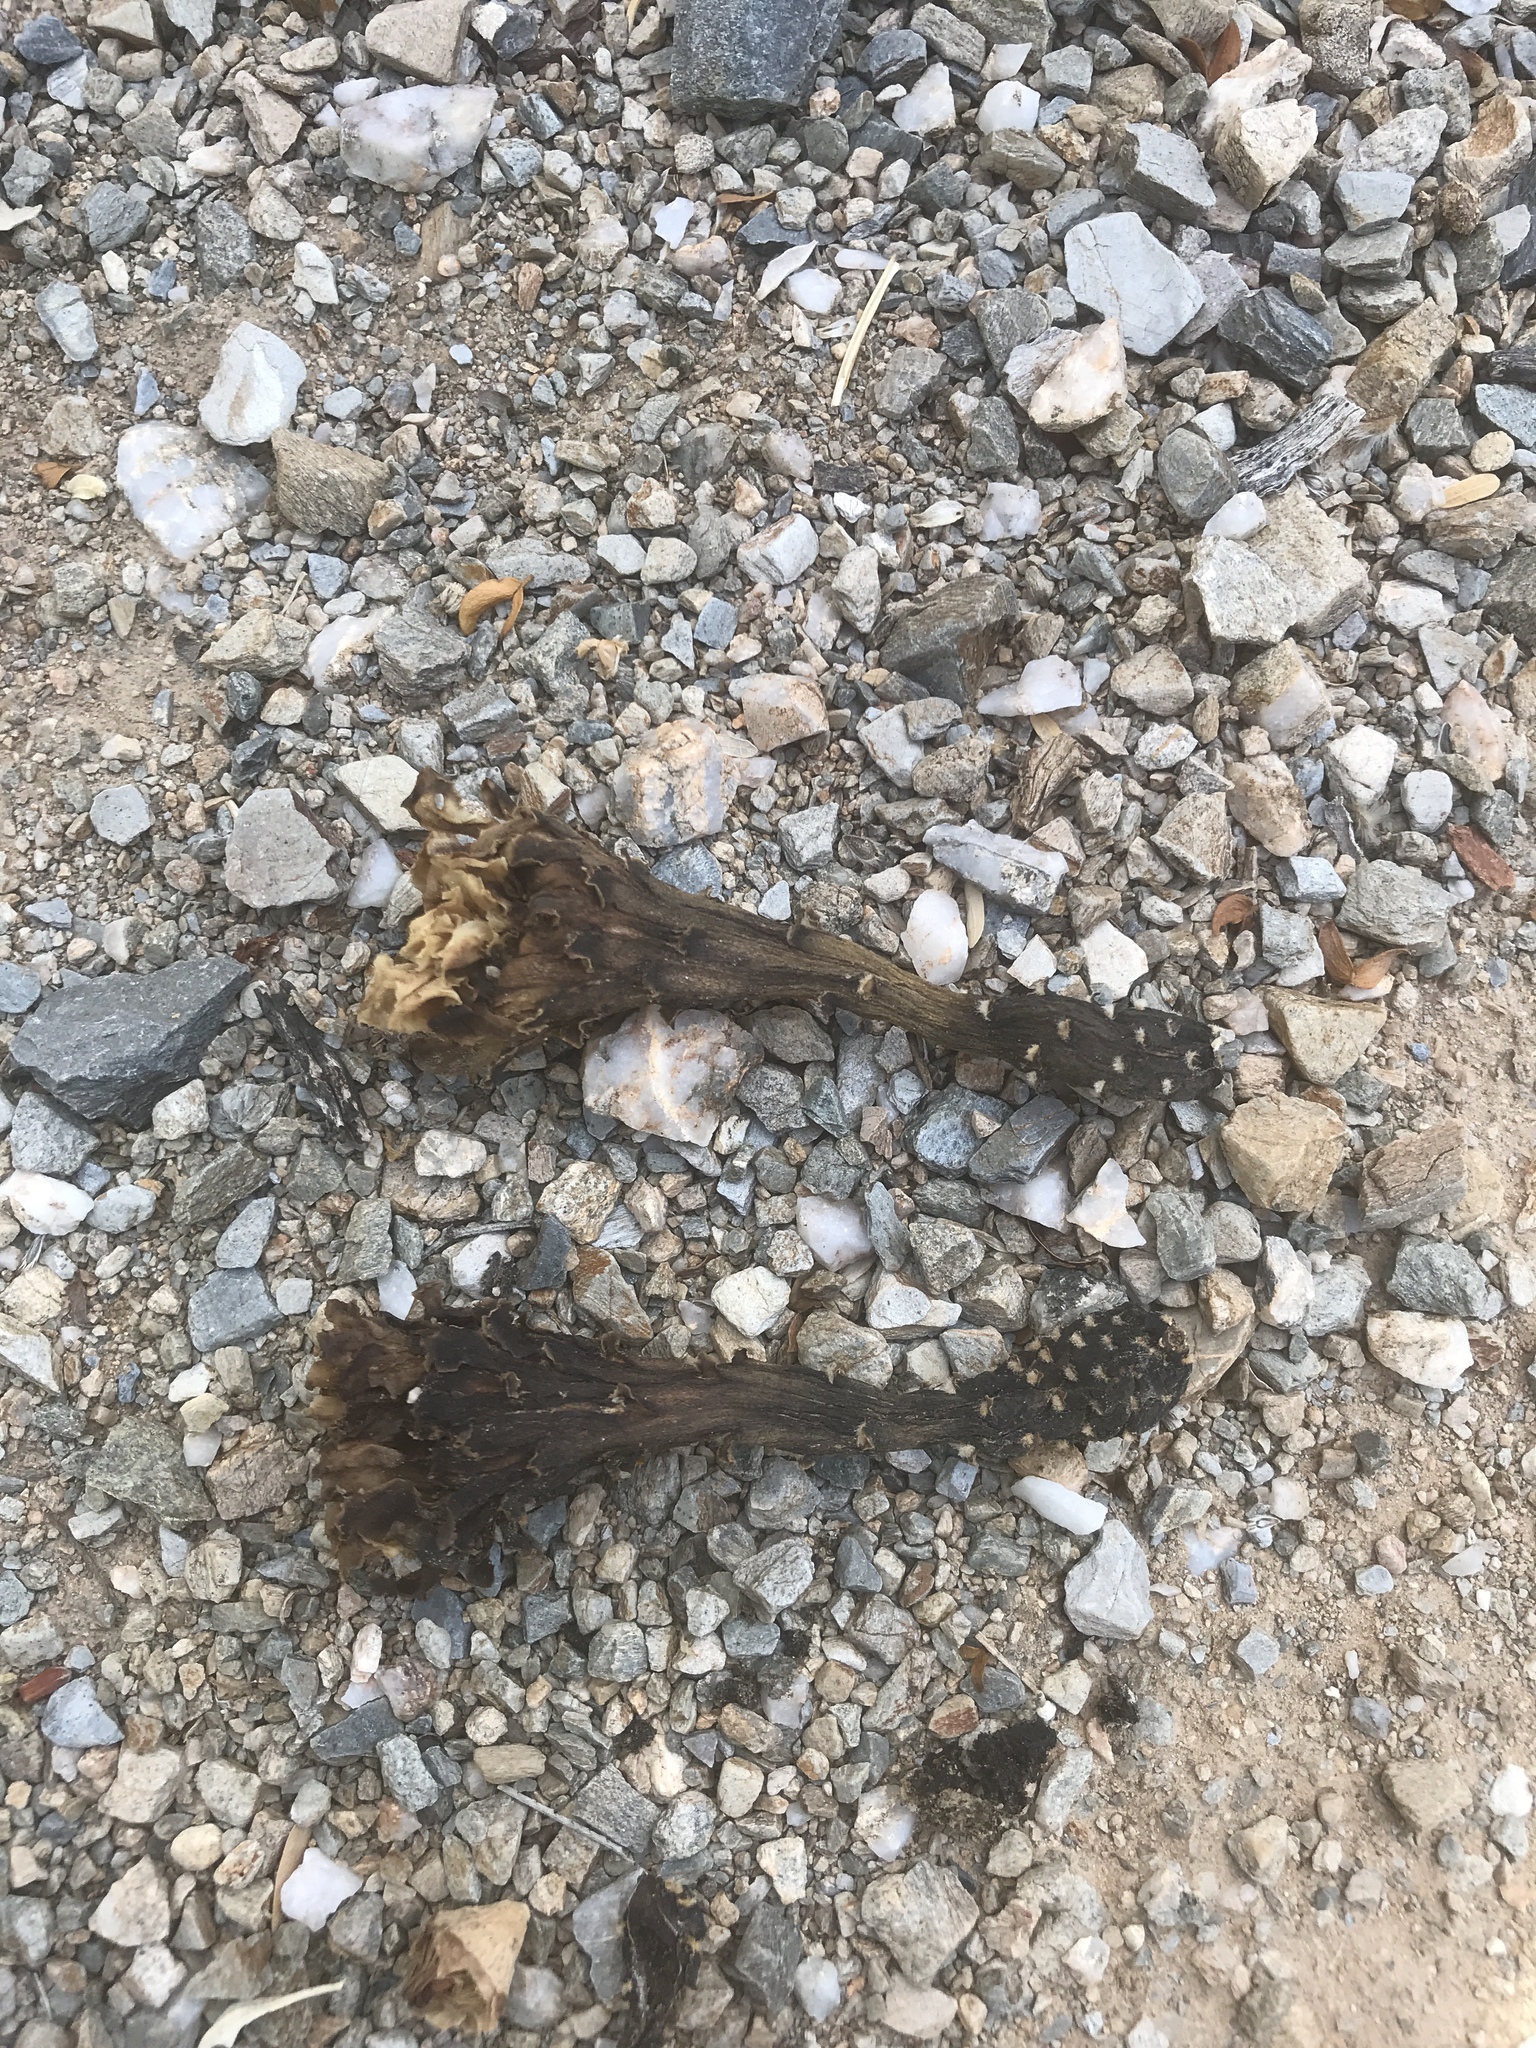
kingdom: Plantae
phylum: Tracheophyta
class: Magnoliopsida
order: Caryophyllales
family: Cactaceae
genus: Carnegiea
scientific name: Carnegiea gigantea
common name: Saguaro
